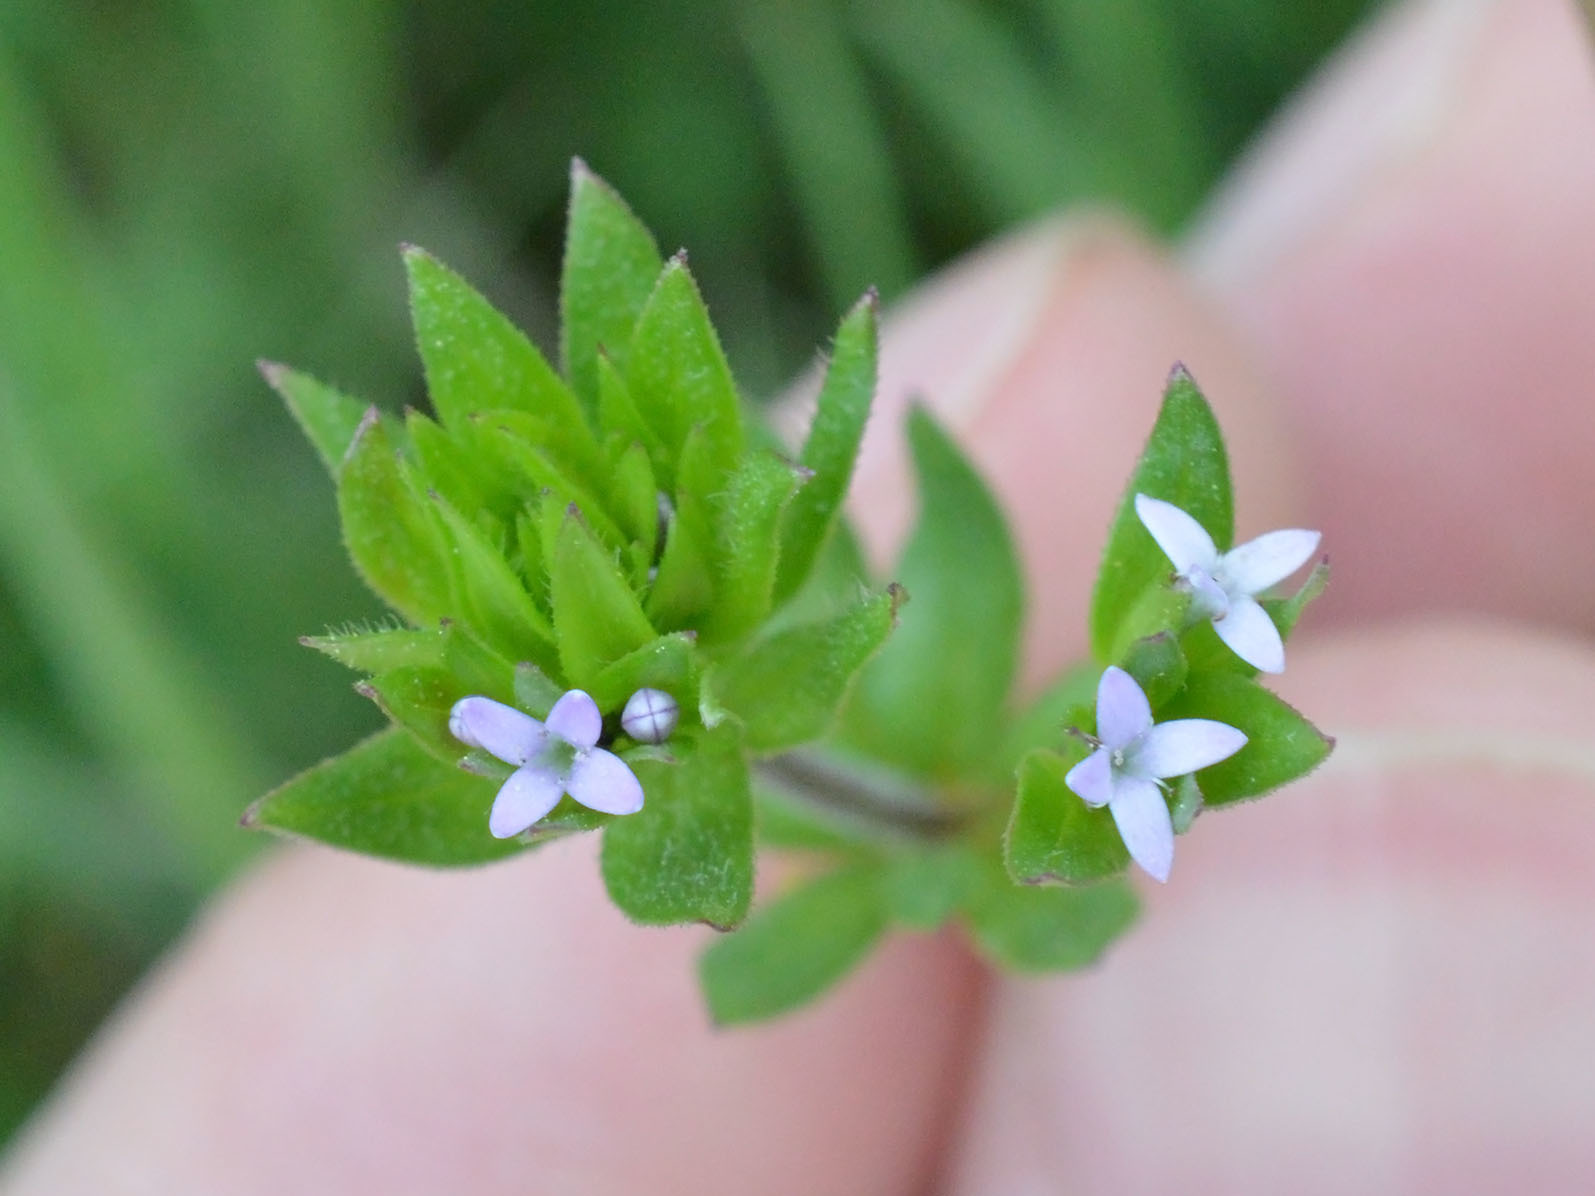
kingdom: Plantae
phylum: Tracheophyta
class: Magnoliopsida
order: Gentianales
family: Rubiaceae
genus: Sherardia
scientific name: Sherardia arvensis
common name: Field madder
